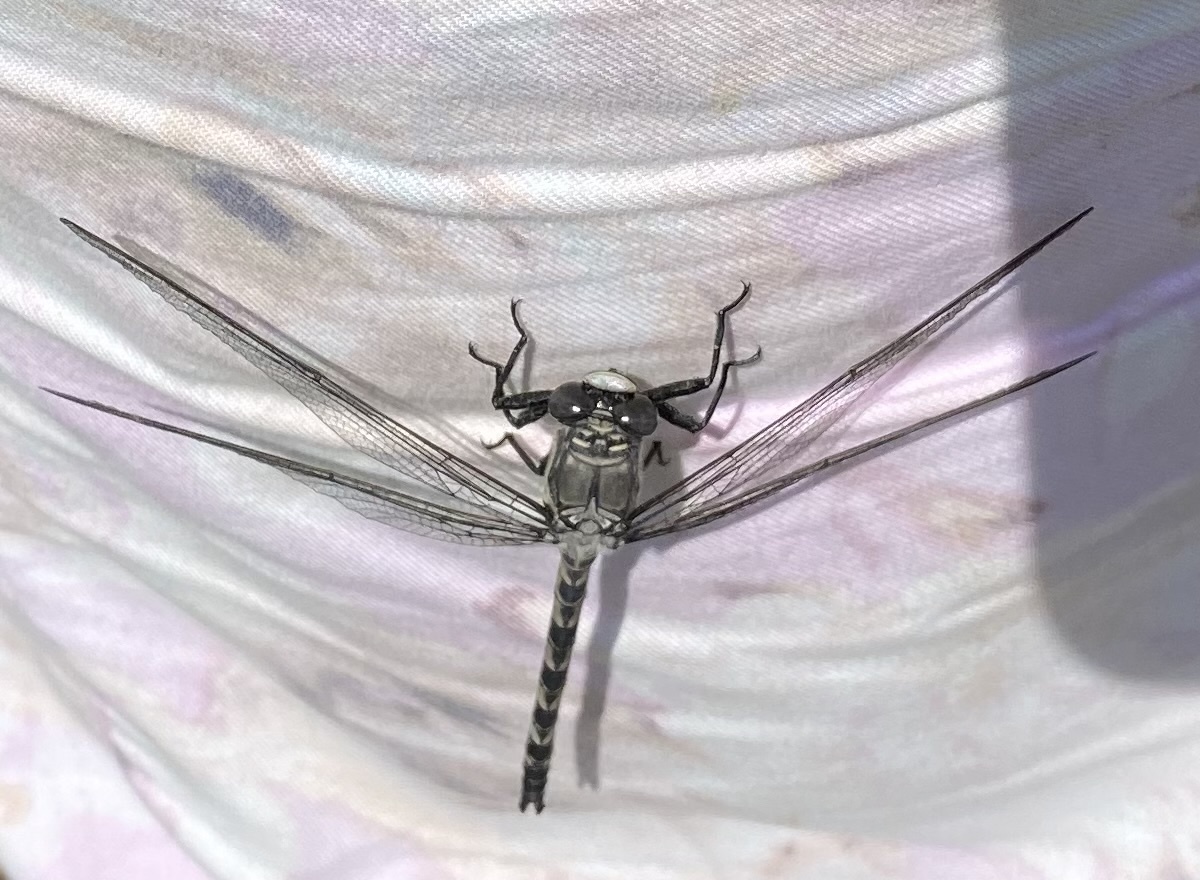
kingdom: Animalia
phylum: Arthropoda
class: Insecta
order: Odonata
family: Petaluridae
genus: Tachopteryx
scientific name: Tachopteryx thoreyi
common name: Gray petaltail
